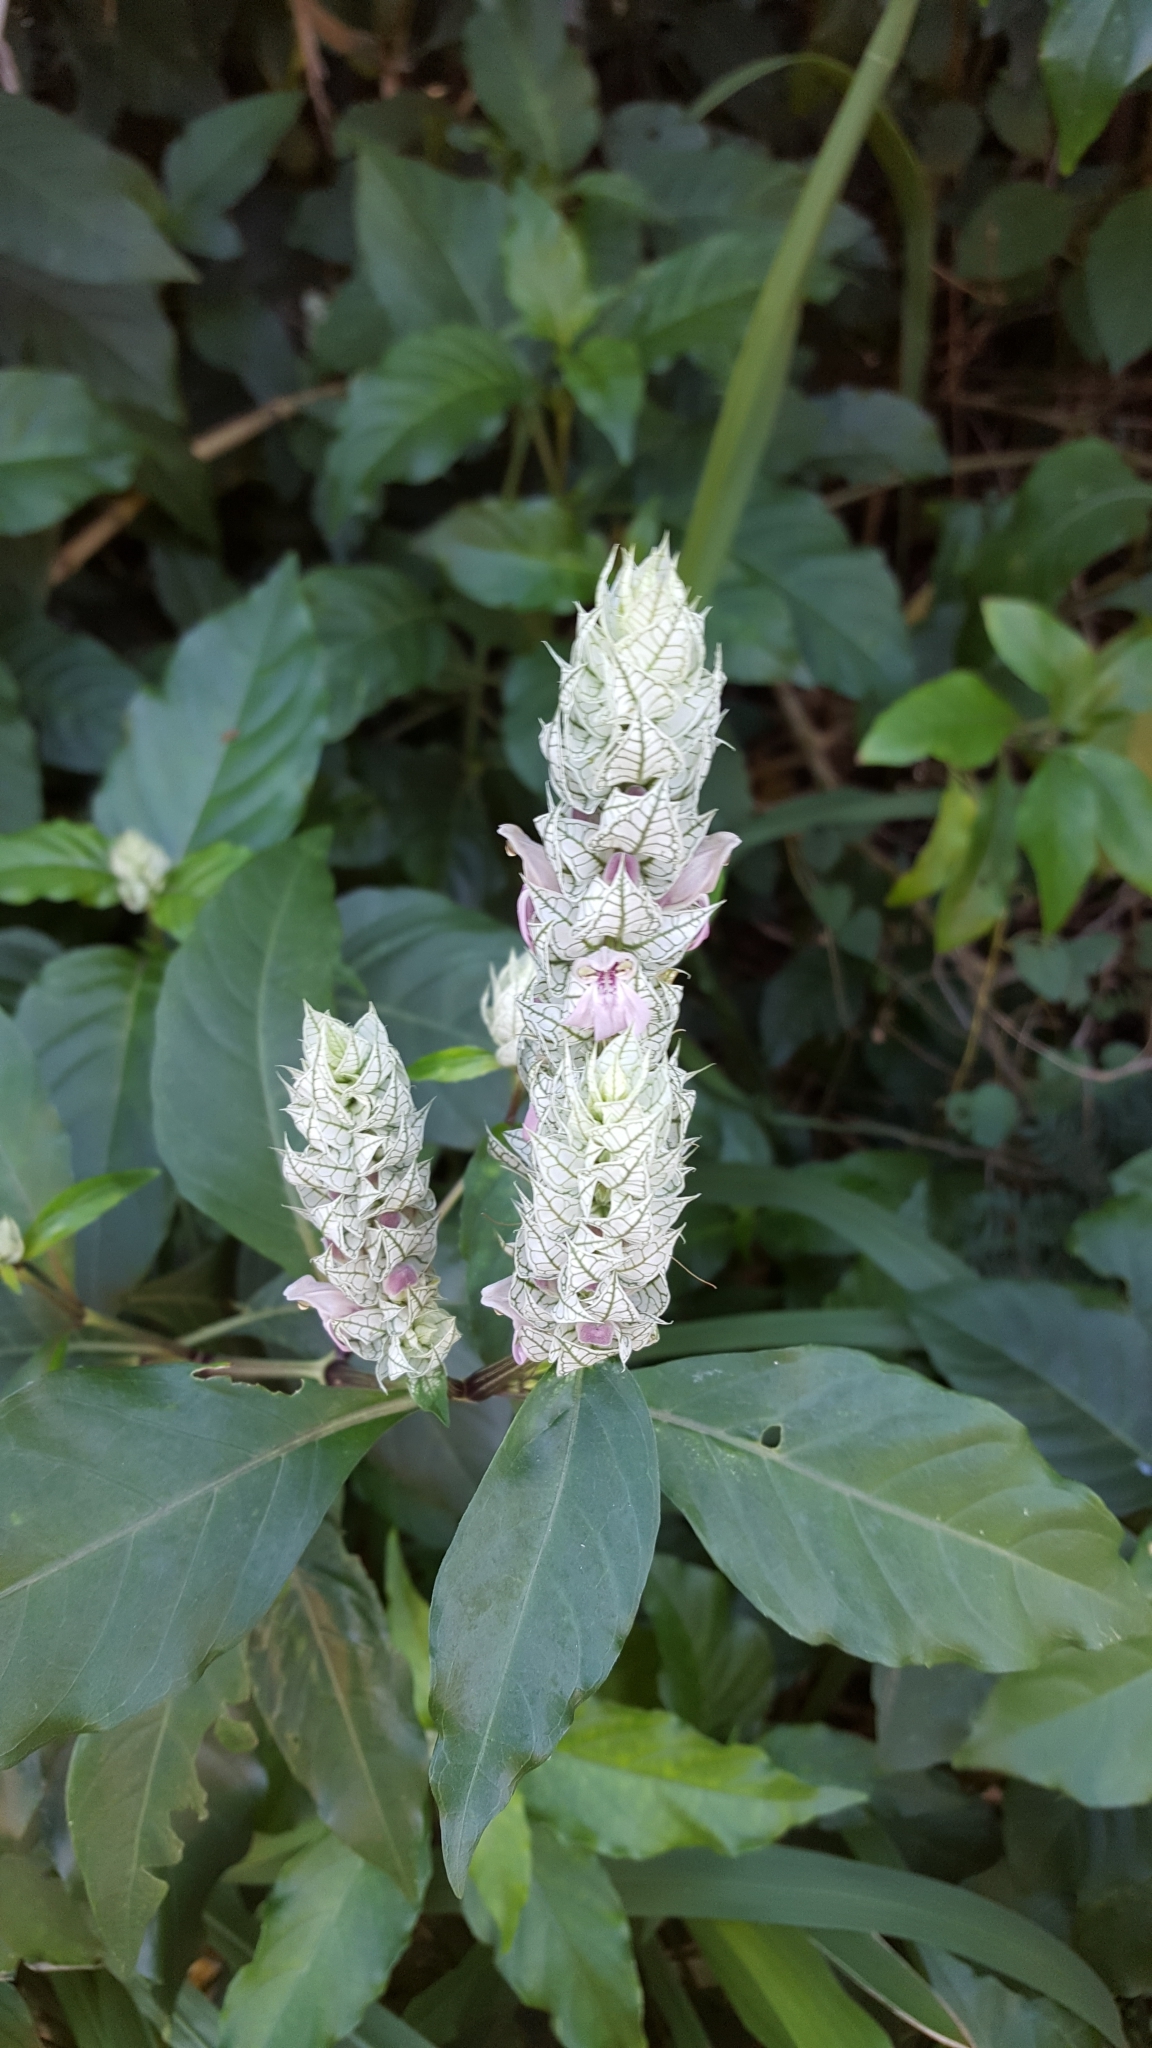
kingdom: Plantae
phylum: Tracheophyta
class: Magnoliopsida
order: Lamiales
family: Acanthaceae
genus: Justicia
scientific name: Justicia betonica
